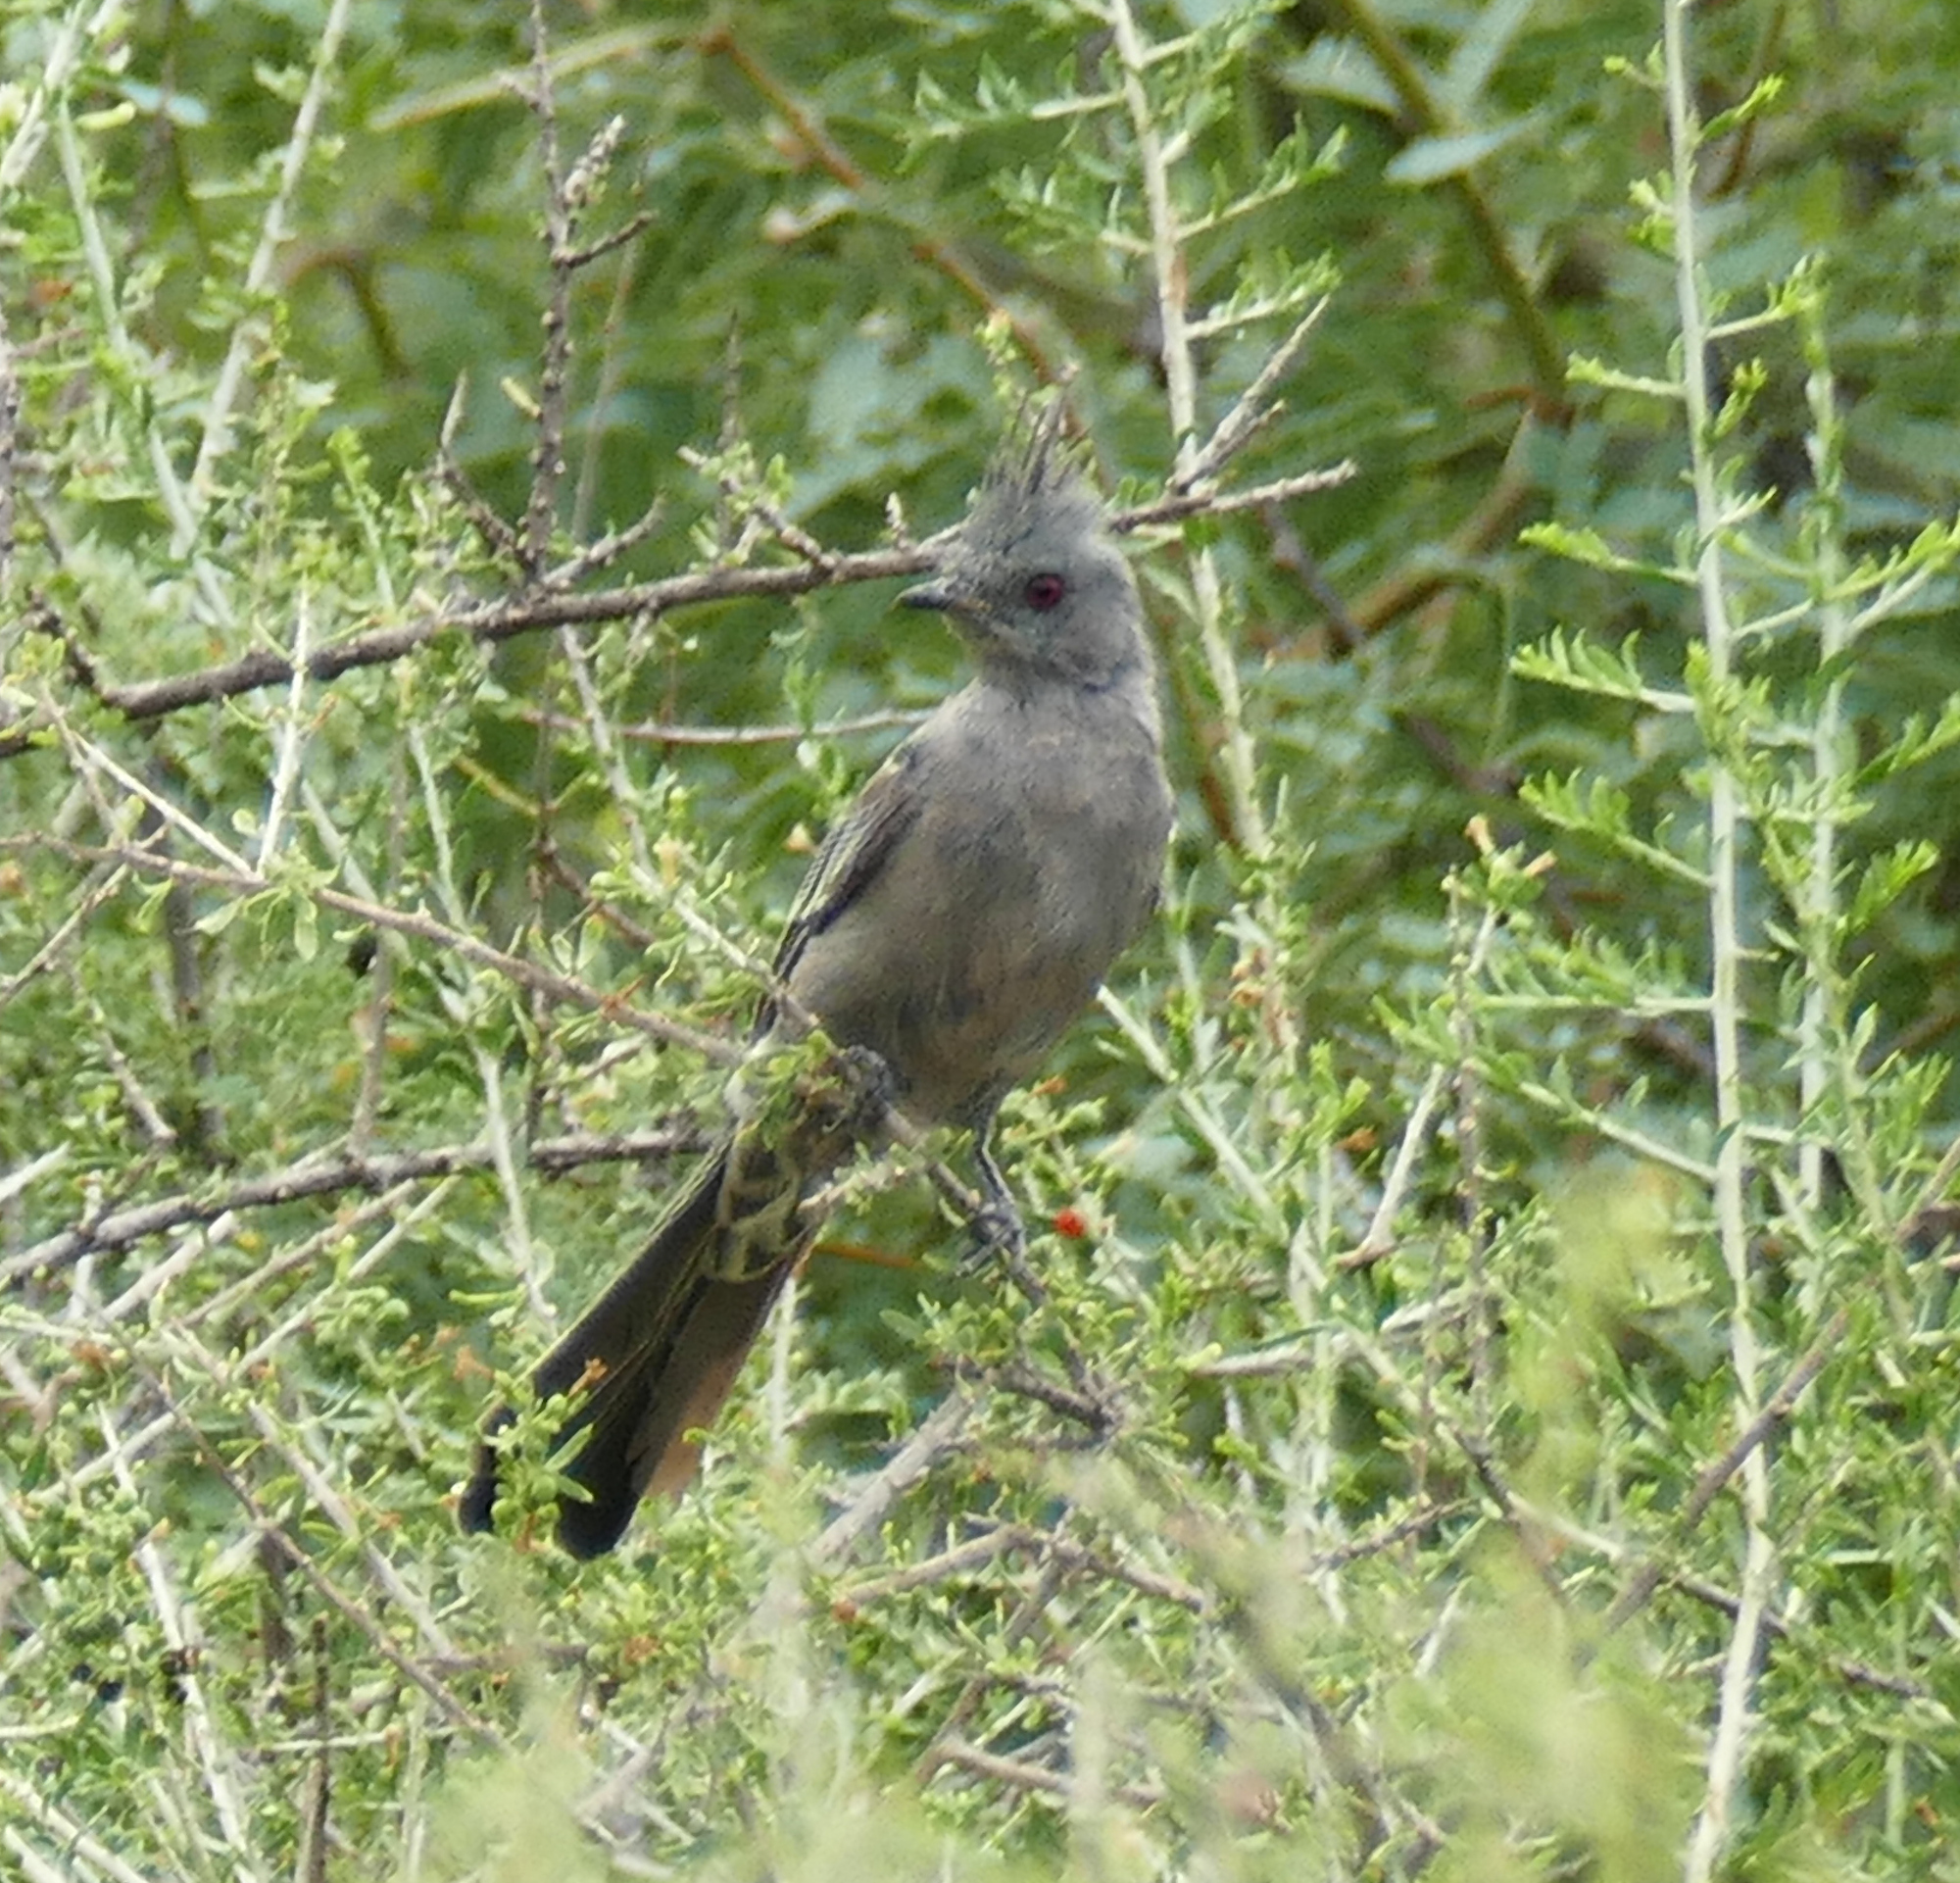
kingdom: Animalia
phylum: Chordata
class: Aves
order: Passeriformes
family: Ptilogonatidae
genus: Phainopepla
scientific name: Phainopepla nitens
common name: Phainopepla
